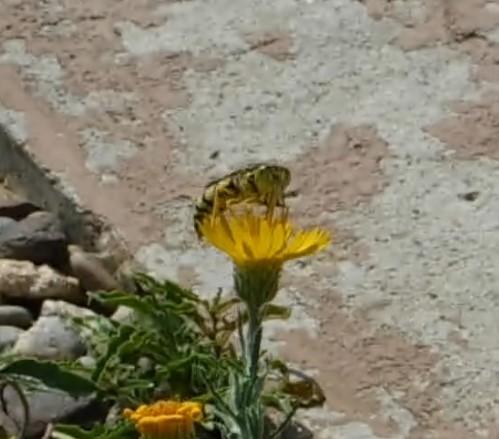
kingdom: Animalia
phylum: Arthropoda
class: Insecta
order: Hymenoptera
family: Crabronidae
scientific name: Crabronidae
